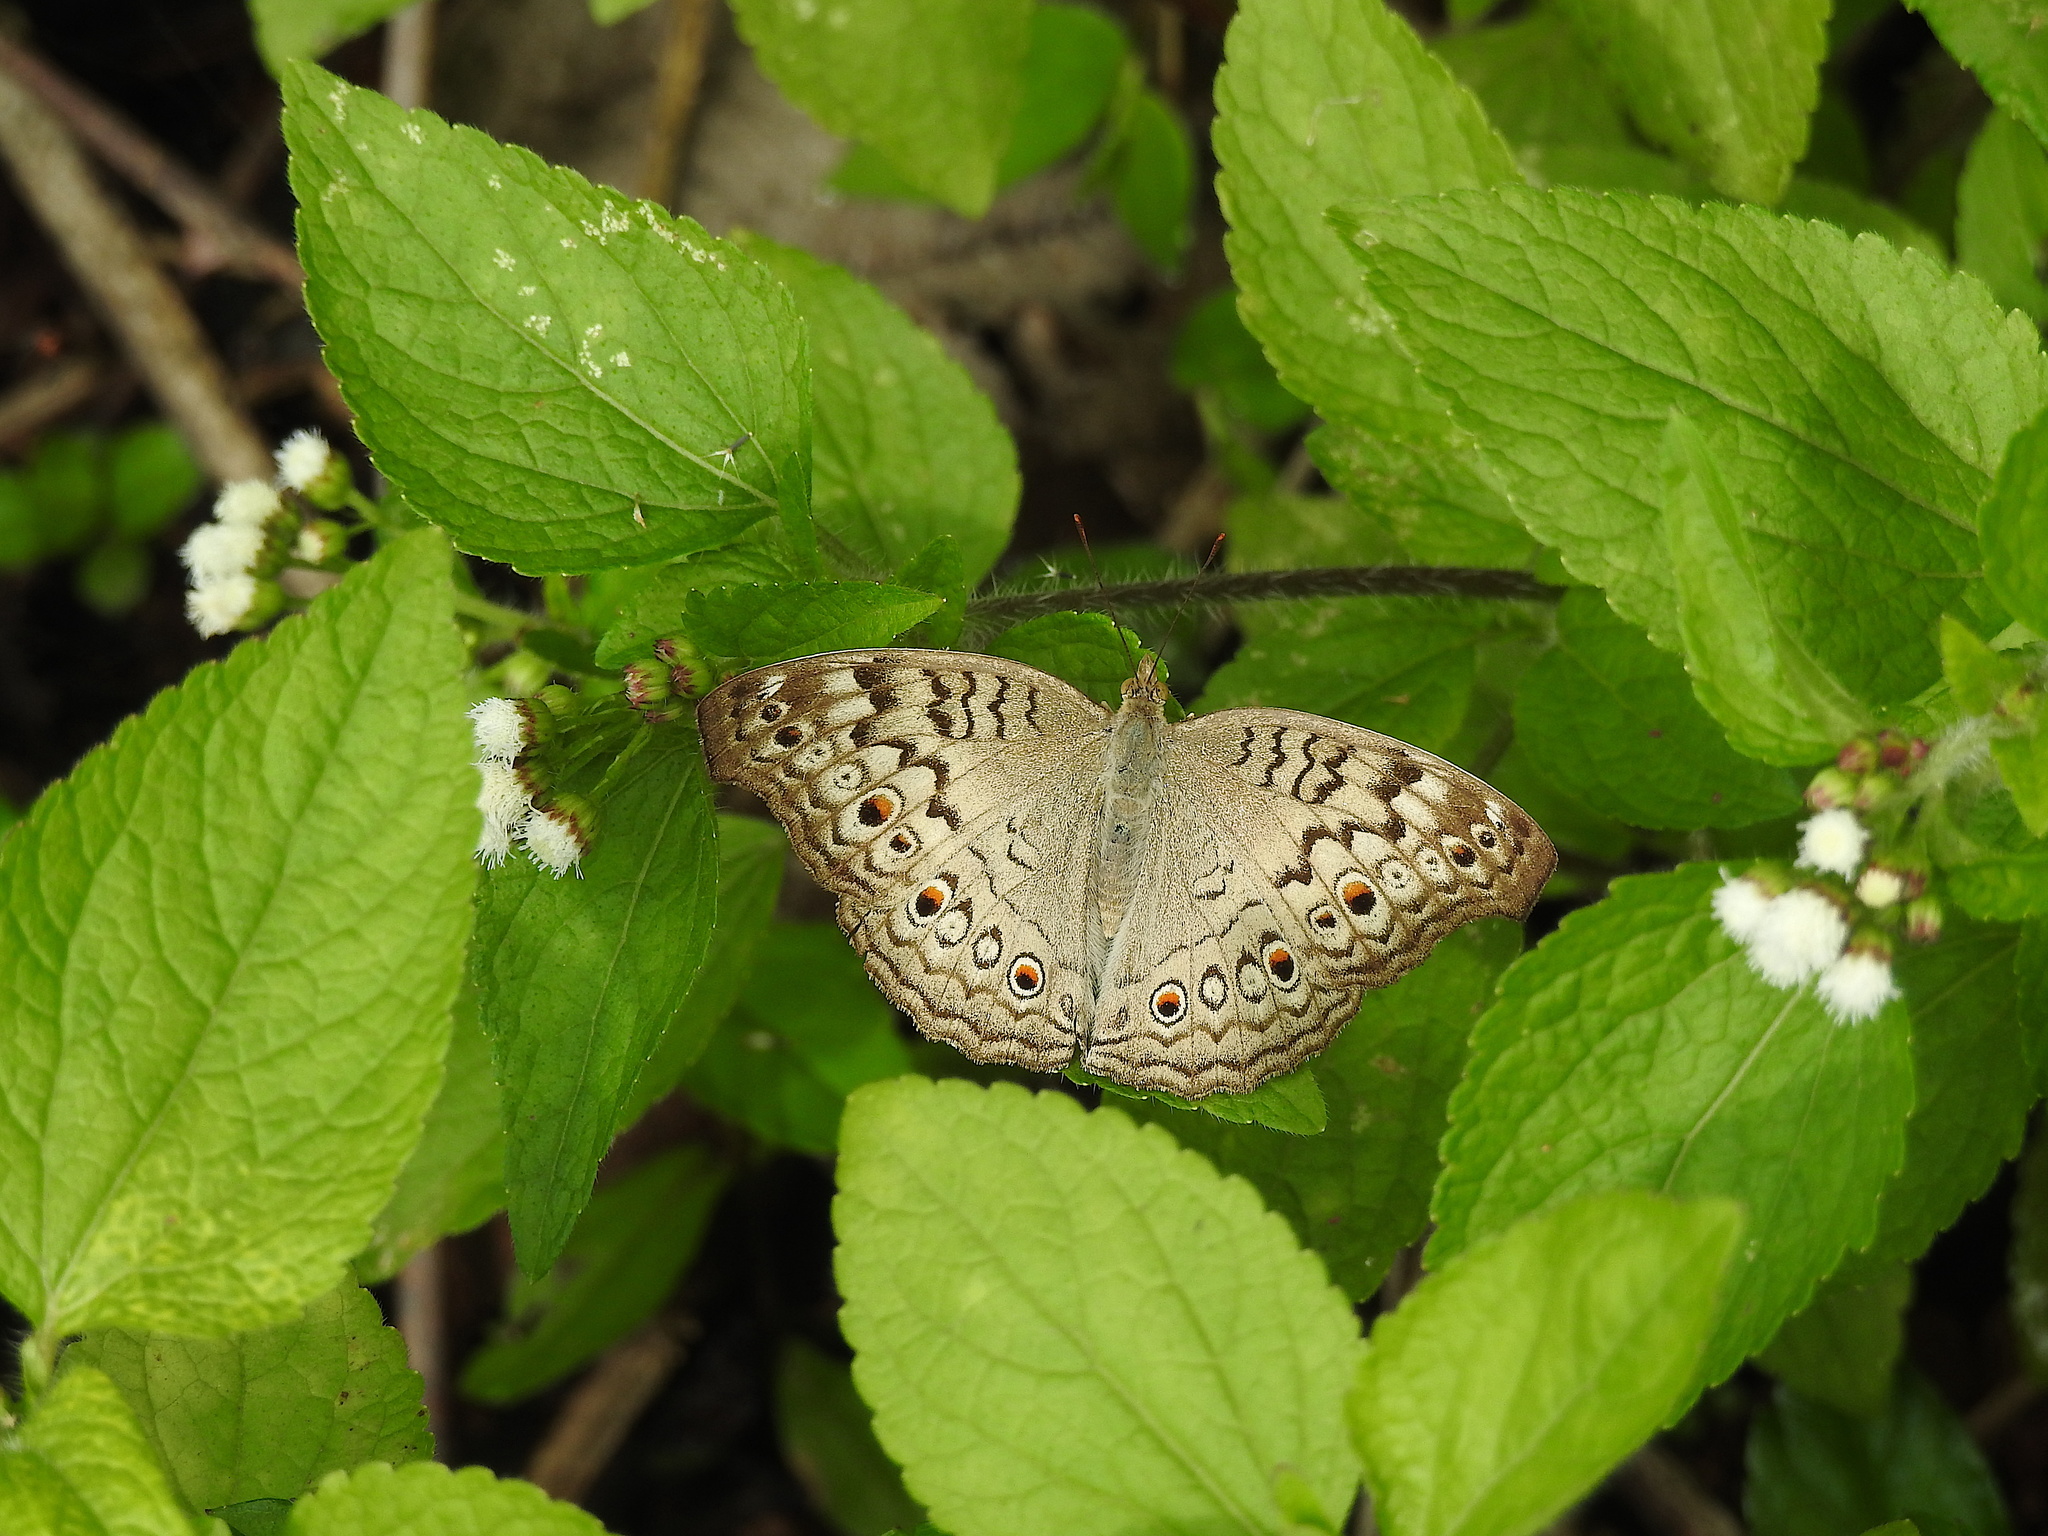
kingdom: Animalia
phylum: Arthropoda
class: Insecta
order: Lepidoptera
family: Nymphalidae
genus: Junonia
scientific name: Junonia atlites
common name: Grey pansy
